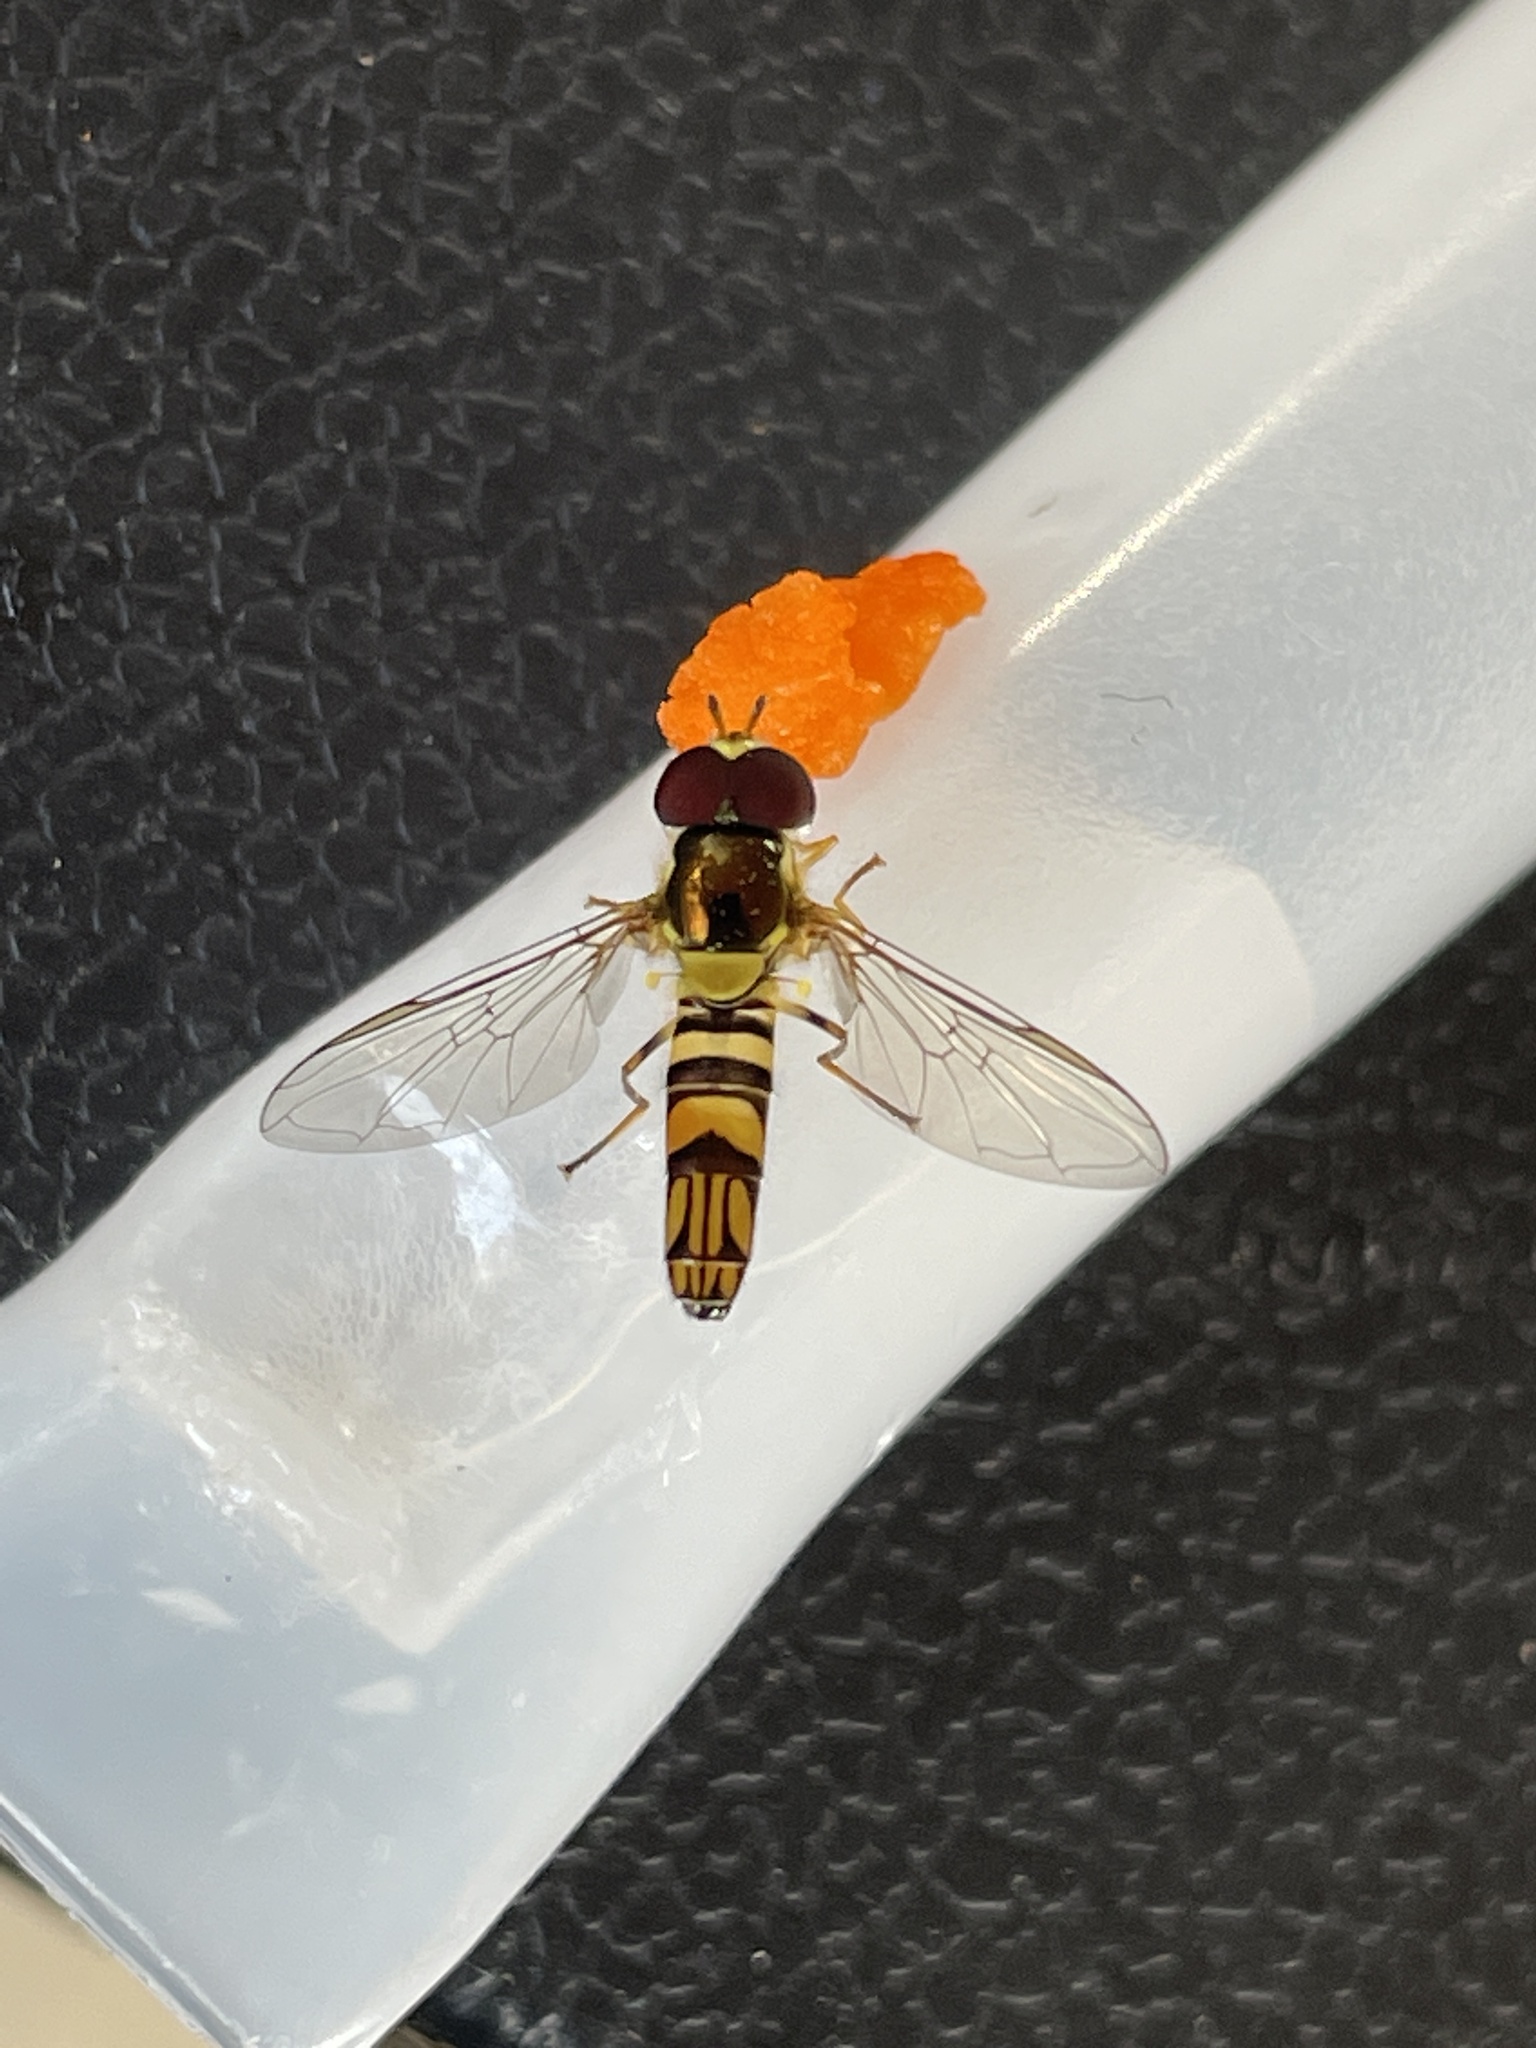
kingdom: Animalia
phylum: Arthropoda
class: Insecta
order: Diptera
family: Syrphidae
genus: Allograpta
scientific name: Allograpta obliqua
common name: Common oblique syrphid
